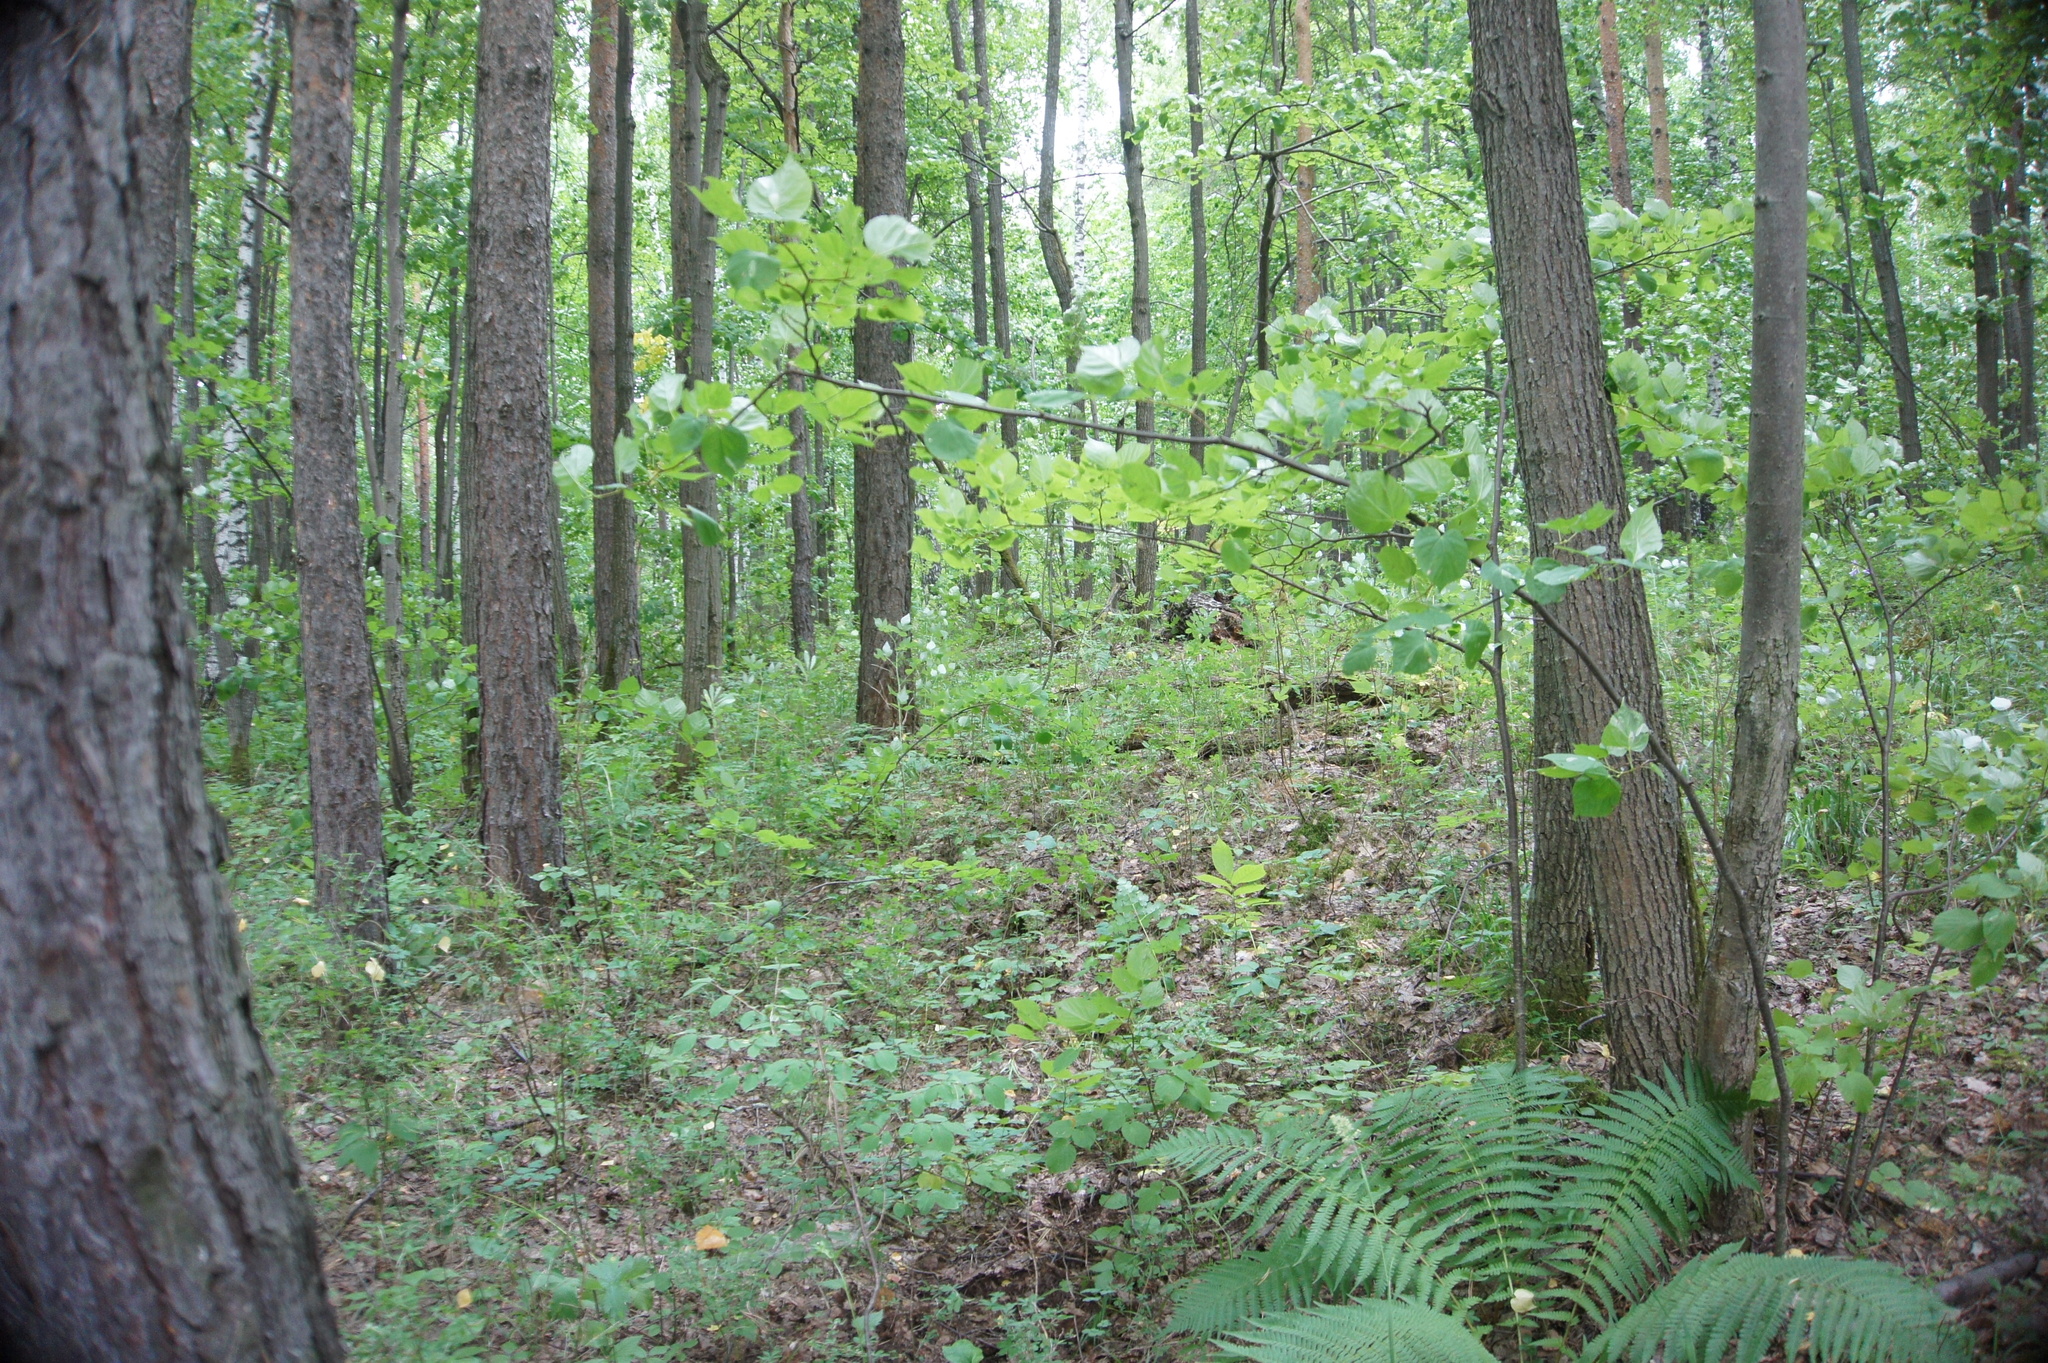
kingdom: Plantae
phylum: Tracheophyta
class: Magnoliopsida
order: Malvales
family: Malvaceae
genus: Tilia
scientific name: Tilia cordata
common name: Small-leaved lime
